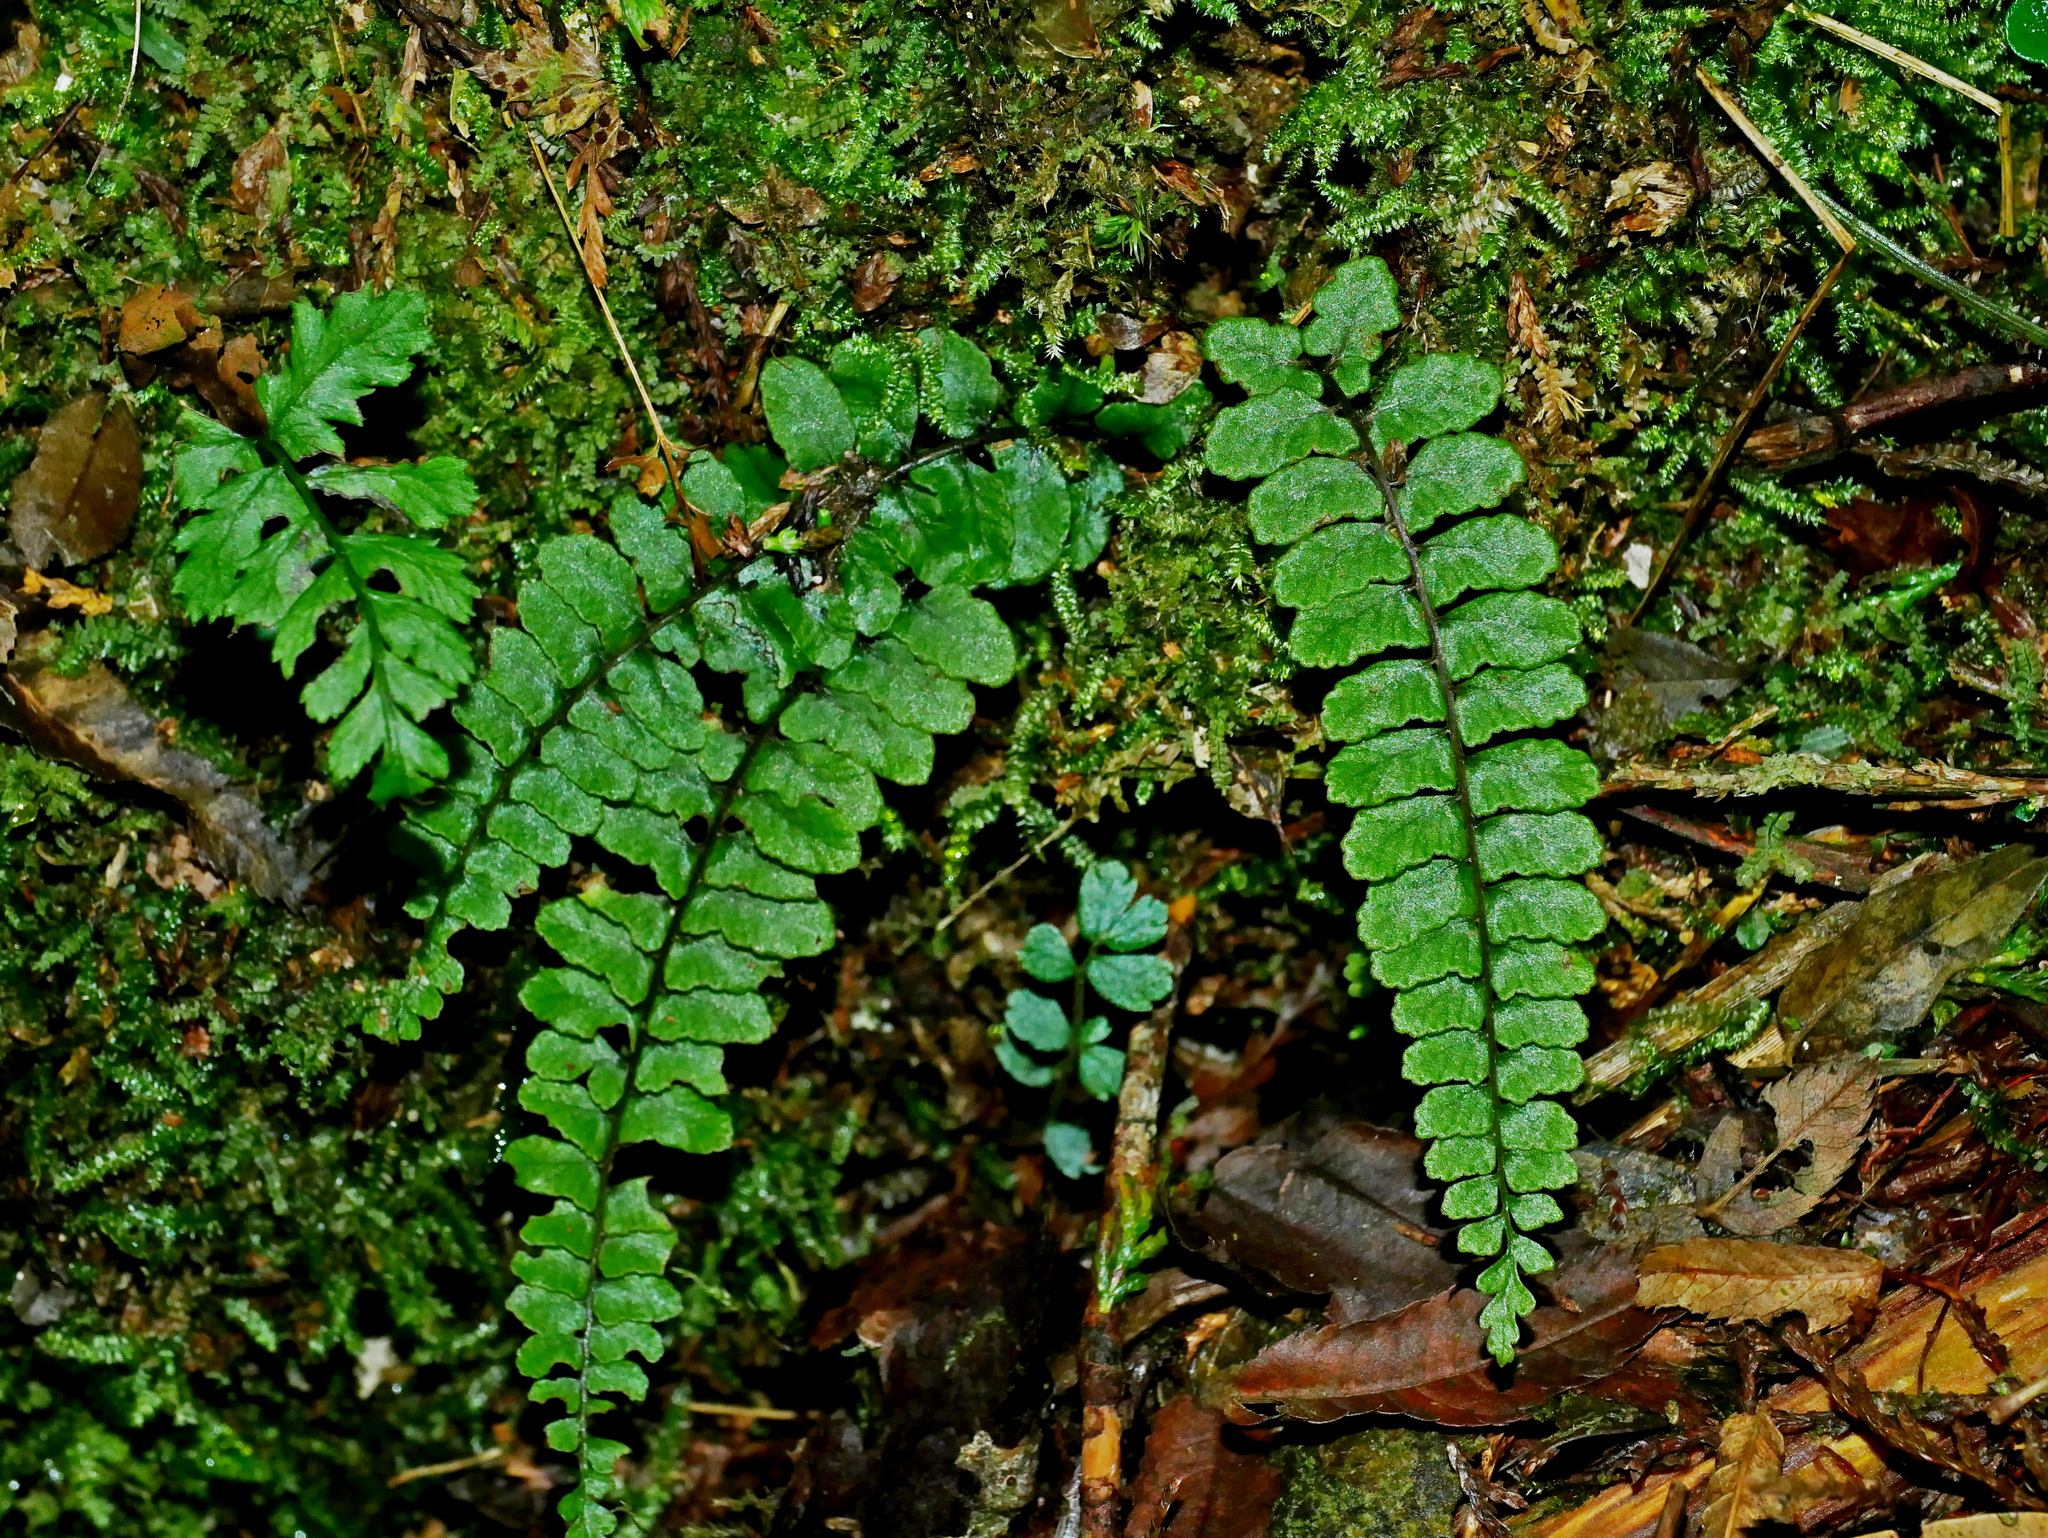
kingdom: Plantae
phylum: Tracheophyta
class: Polypodiopsida
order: Polypodiales
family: Athyriaceae
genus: Athyrium
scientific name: Athyrium nakanoi
